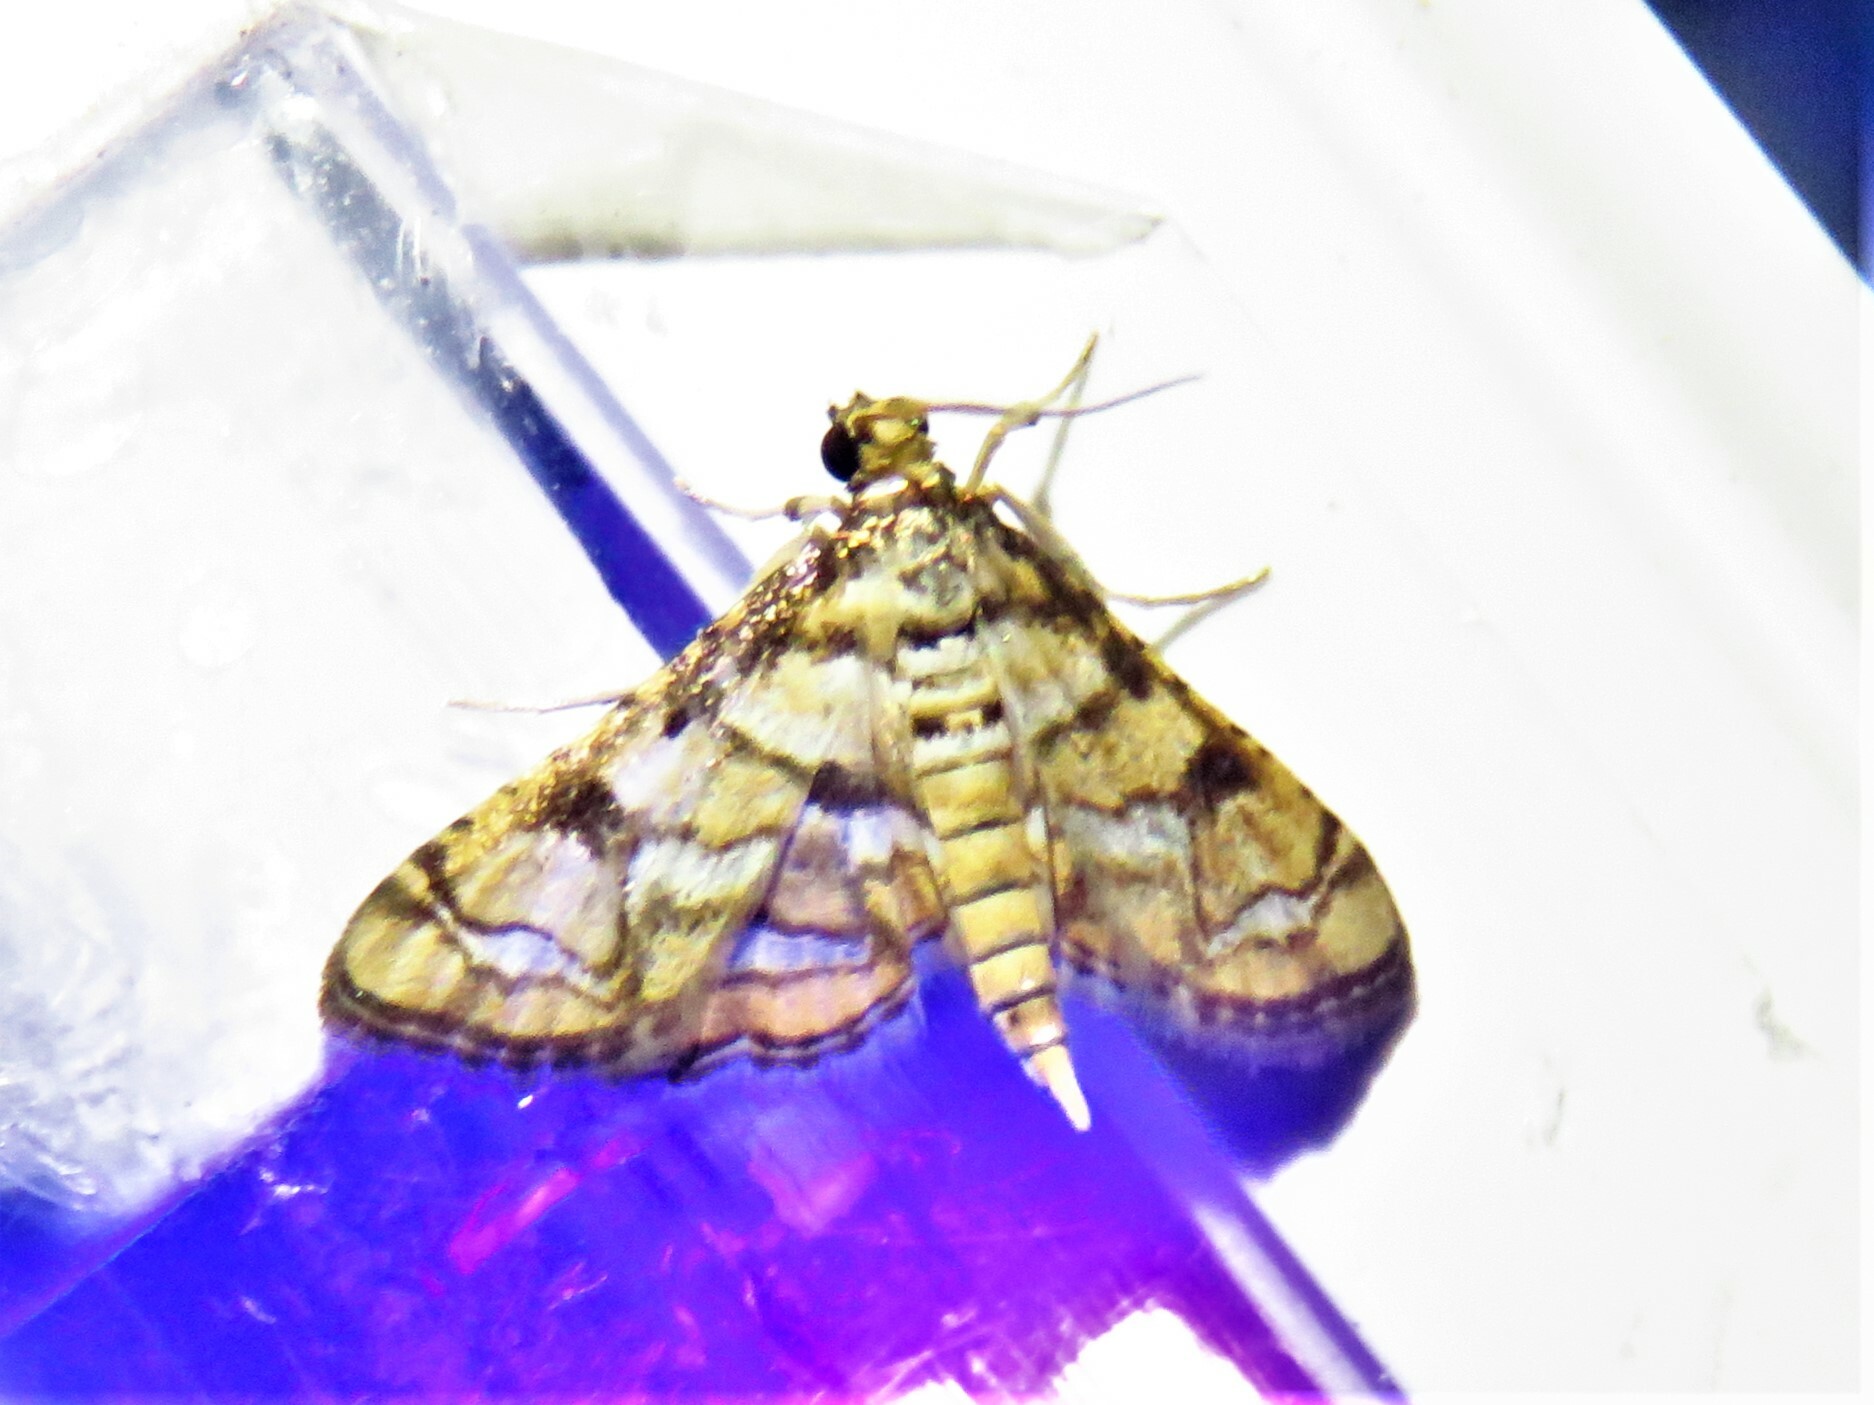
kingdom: Animalia
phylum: Arthropoda
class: Insecta
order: Lepidoptera
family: Crambidae
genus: Hileithia
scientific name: Hileithia magualis
